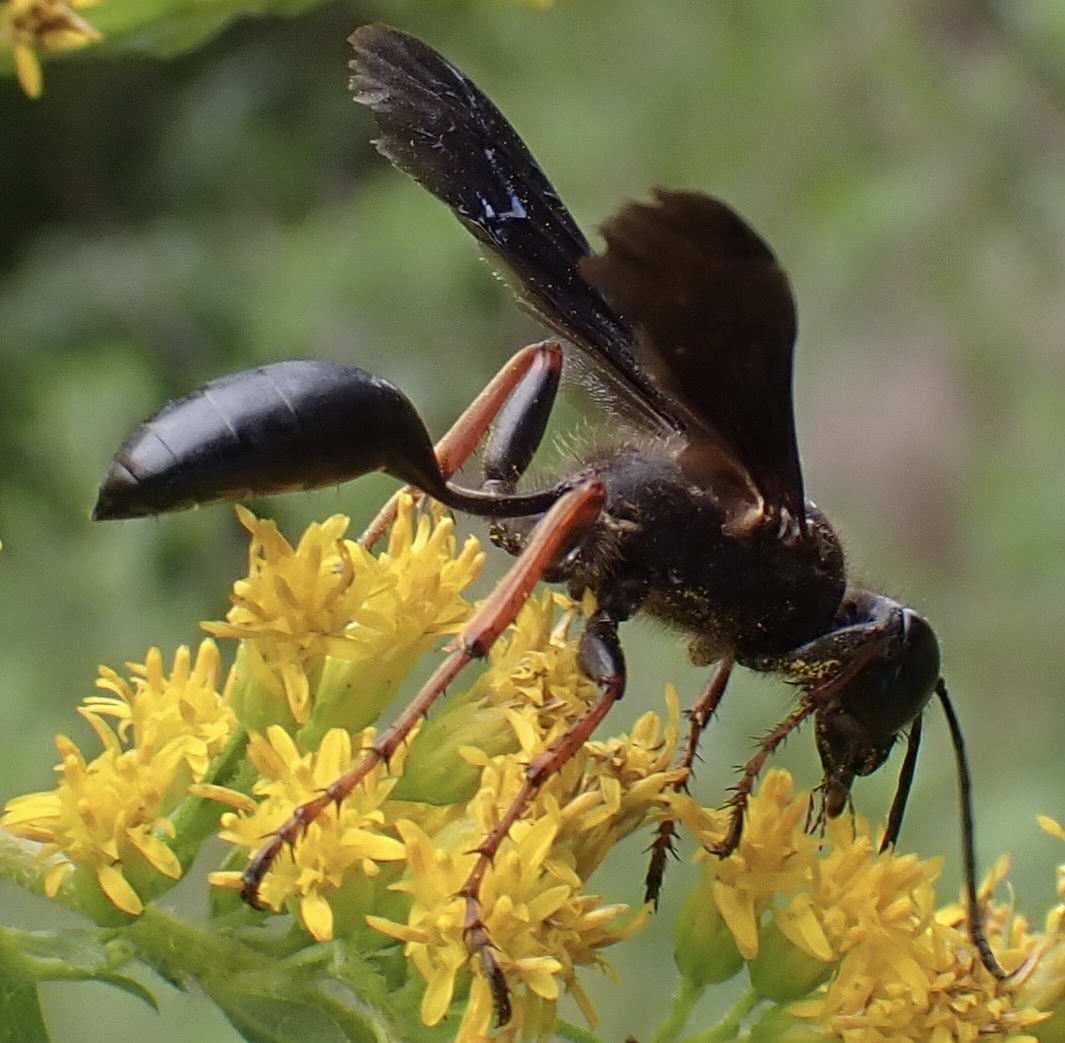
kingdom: Animalia
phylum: Arthropoda
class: Insecta
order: Hymenoptera
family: Sphecidae
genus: Isodontia
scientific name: Isodontia auripes
